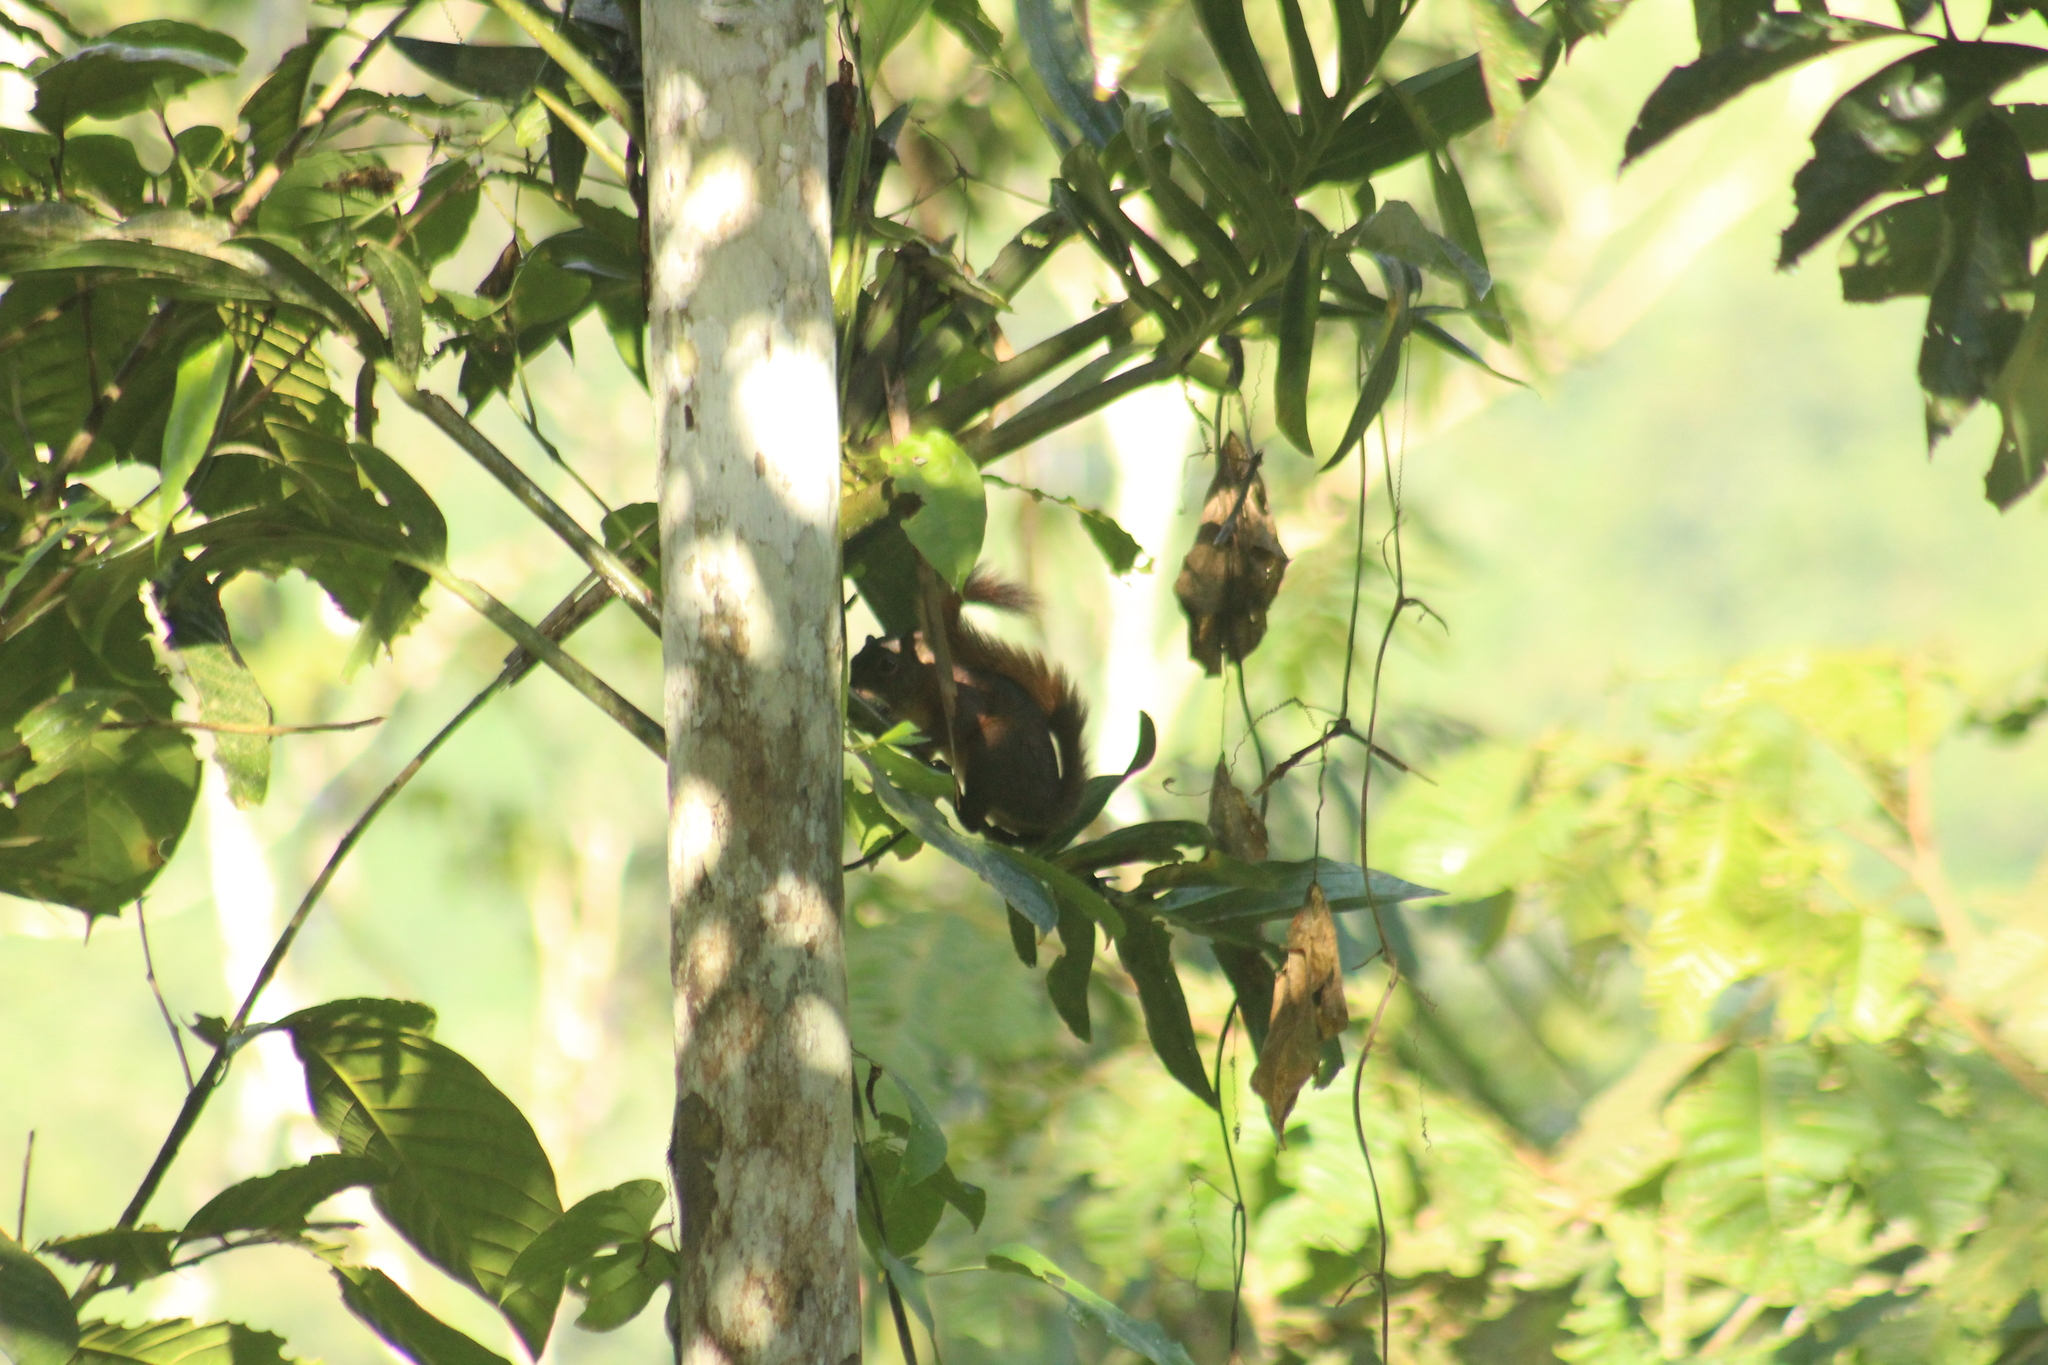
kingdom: Animalia
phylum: Chordata
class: Mammalia
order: Rodentia
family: Sciuridae
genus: Sciurus
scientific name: Sciurus granatensis
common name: Red-tailed squirrel
